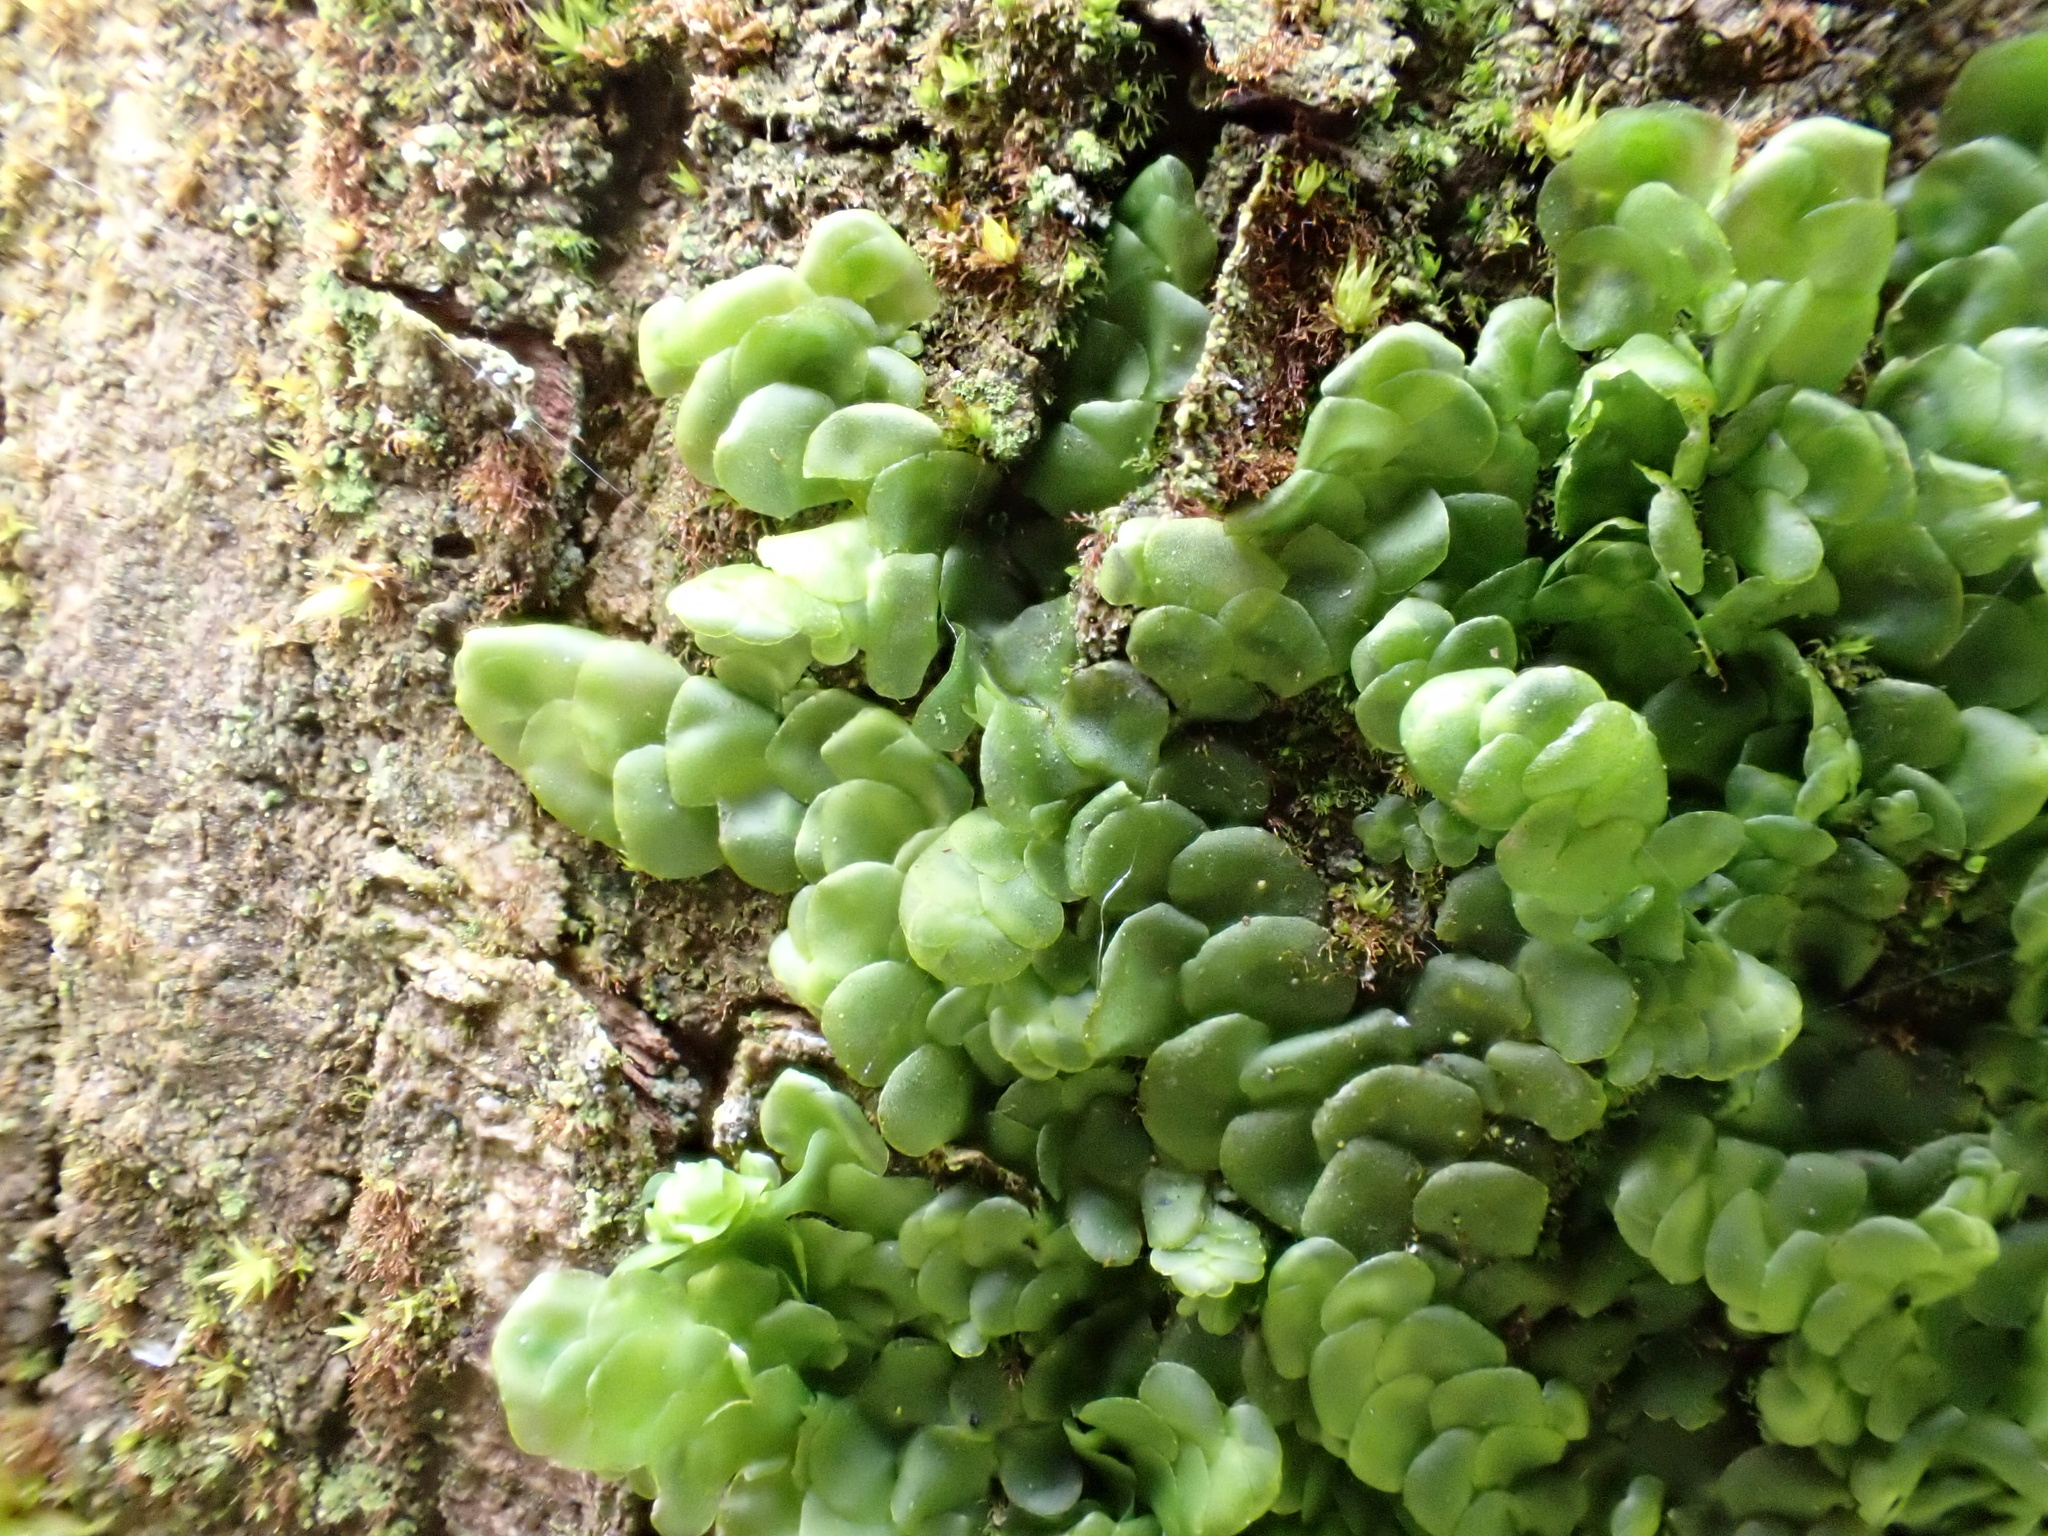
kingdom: Plantae
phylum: Marchantiophyta
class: Jungermanniopsida
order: Porellales
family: Radulaceae
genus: Radula
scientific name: Radula complanata
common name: Flat-leaved scalewort
